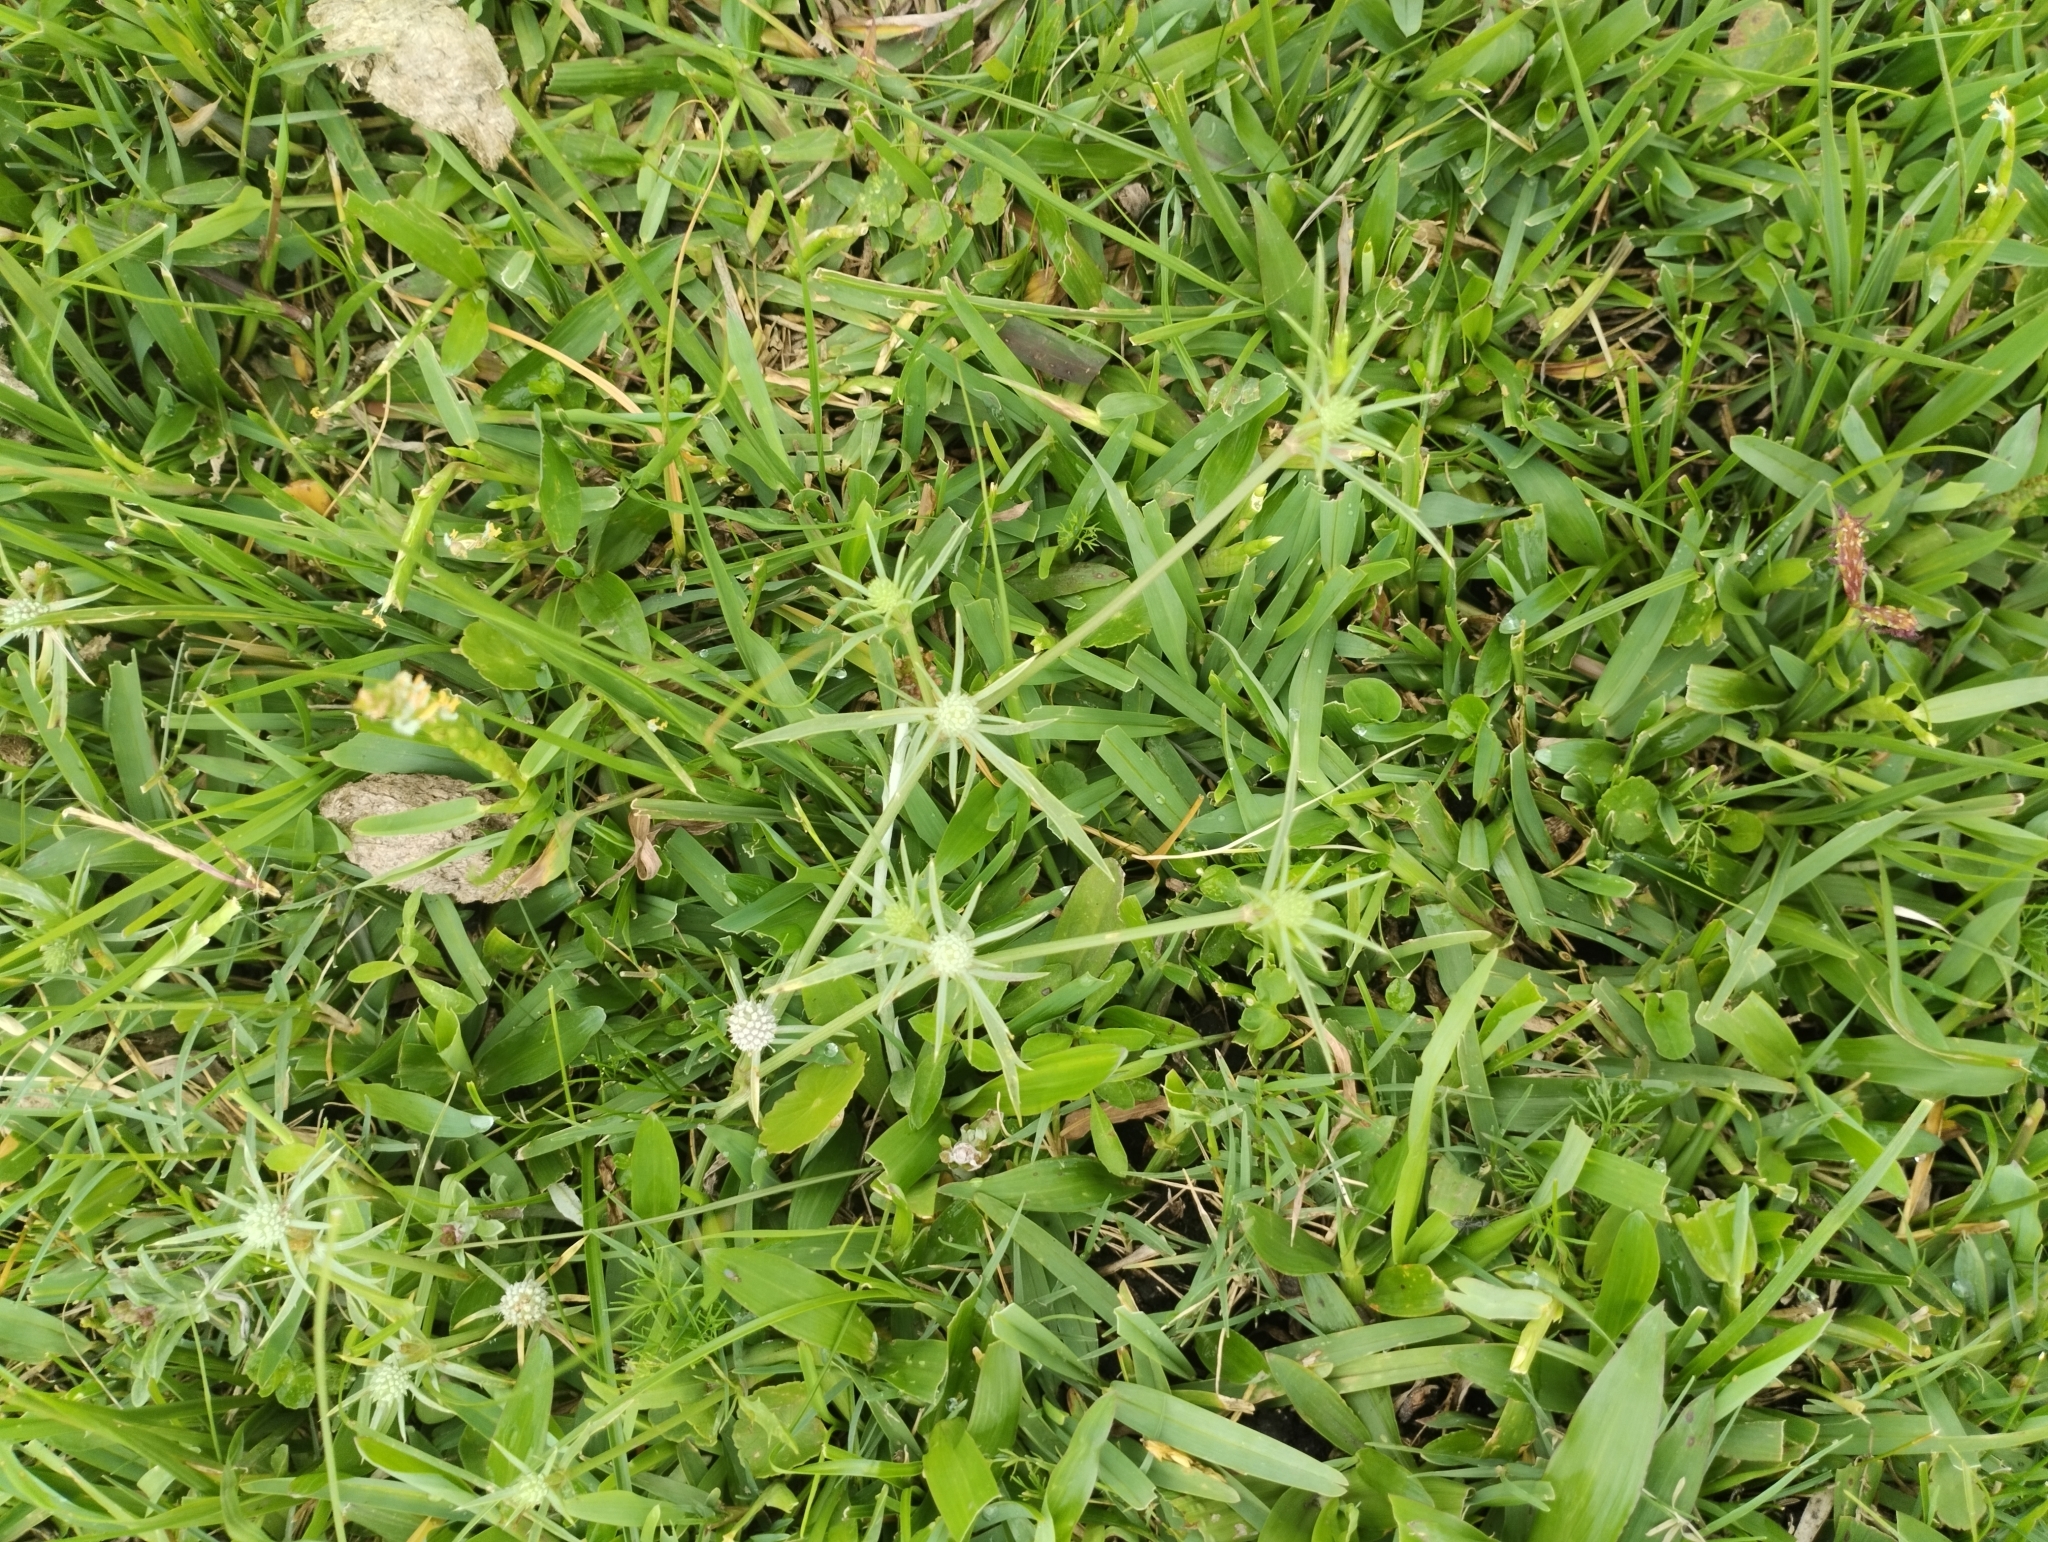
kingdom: Plantae
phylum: Tracheophyta
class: Magnoliopsida
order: Apiales
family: Apiaceae
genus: Eryngium
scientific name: Eryngium echinatum
